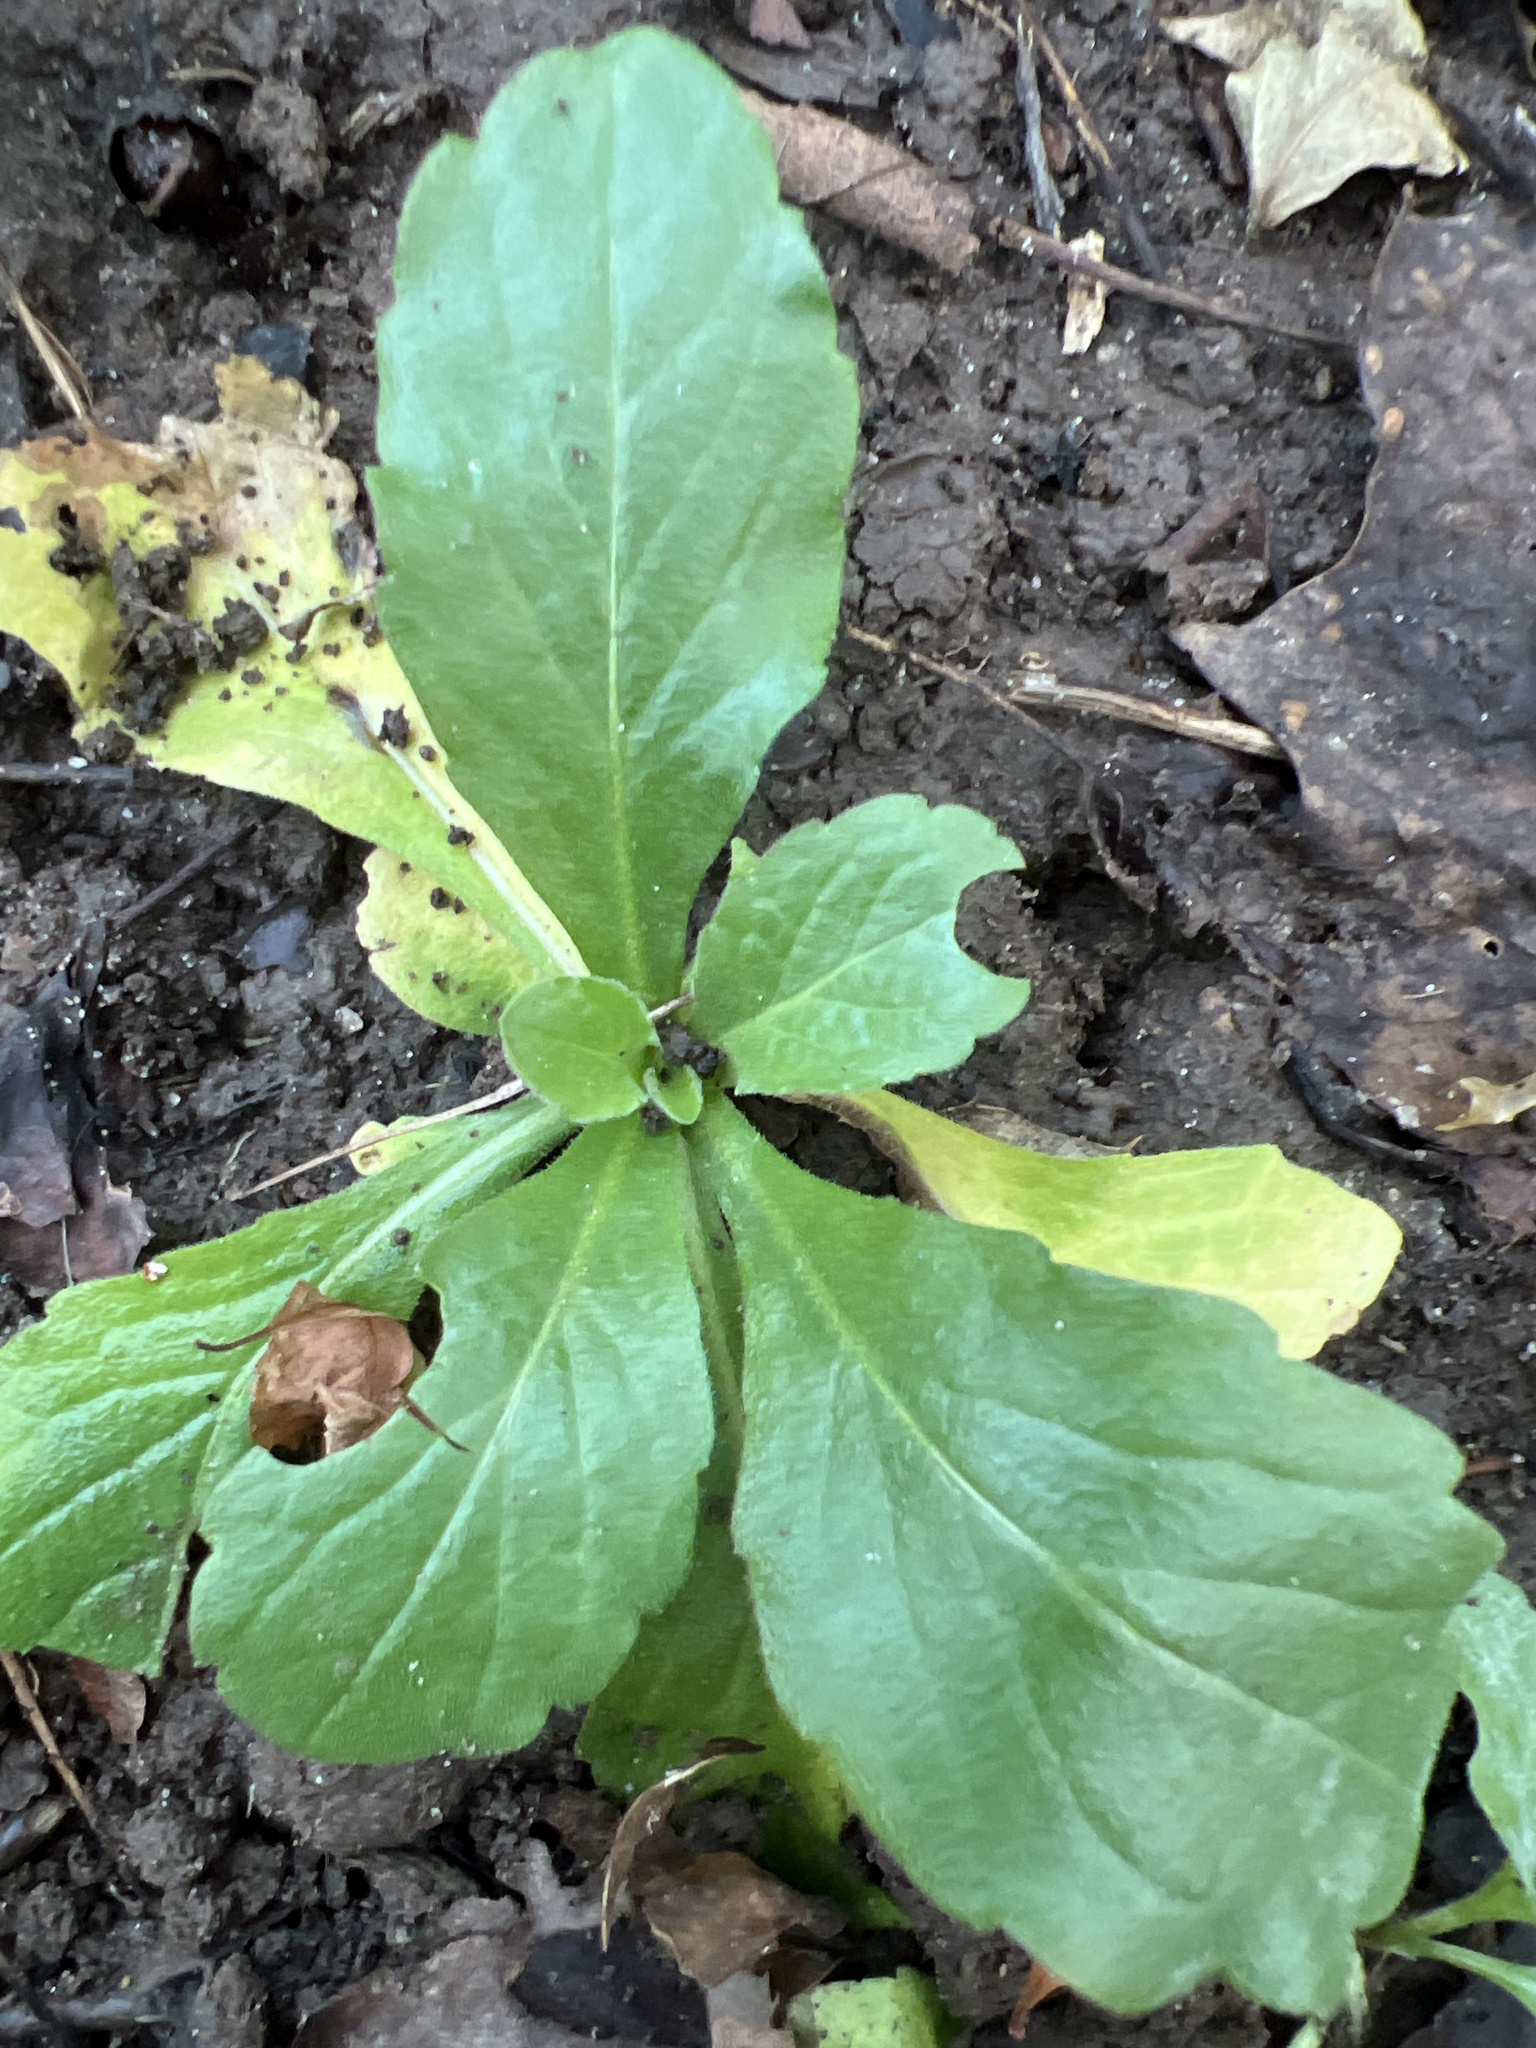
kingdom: Plantae
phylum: Tracheophyta
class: Magnoliopsida
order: Asterales
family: Asteraceae
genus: Erigeron
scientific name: Erigeron philadelphicus
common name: Robin's-plantain
